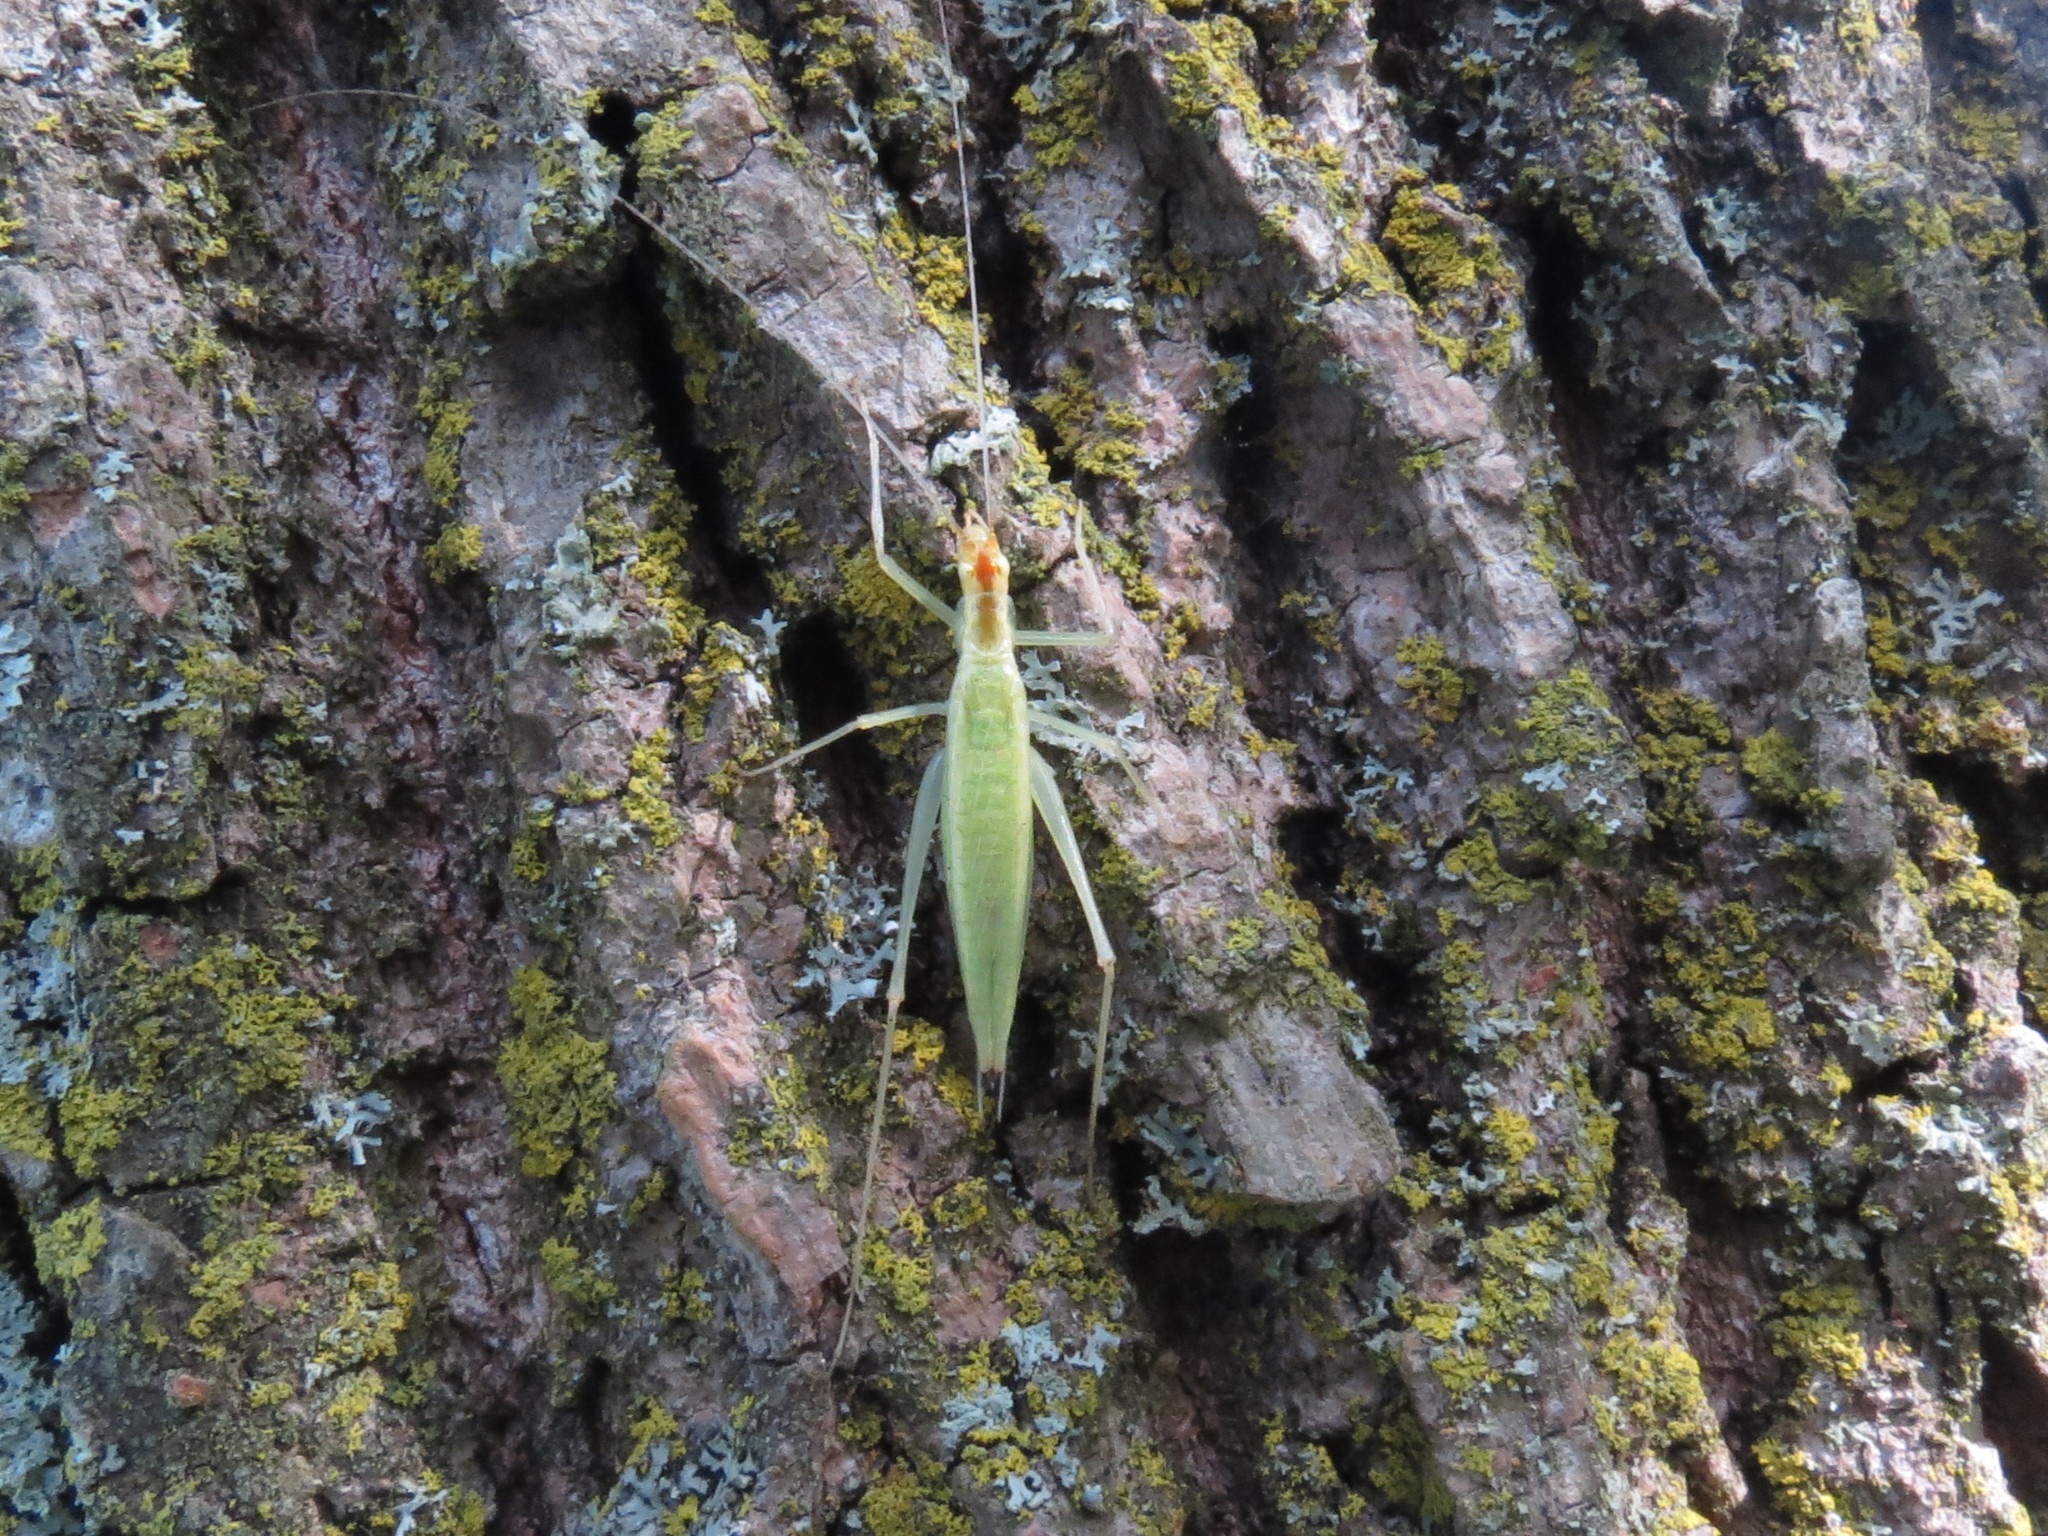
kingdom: Animalia
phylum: Arthropoda
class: Insecta
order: Orthoptera
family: Gryllidae
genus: Oecanthus
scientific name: Oecanthus niveus
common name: Narrow-winged tree cricket
